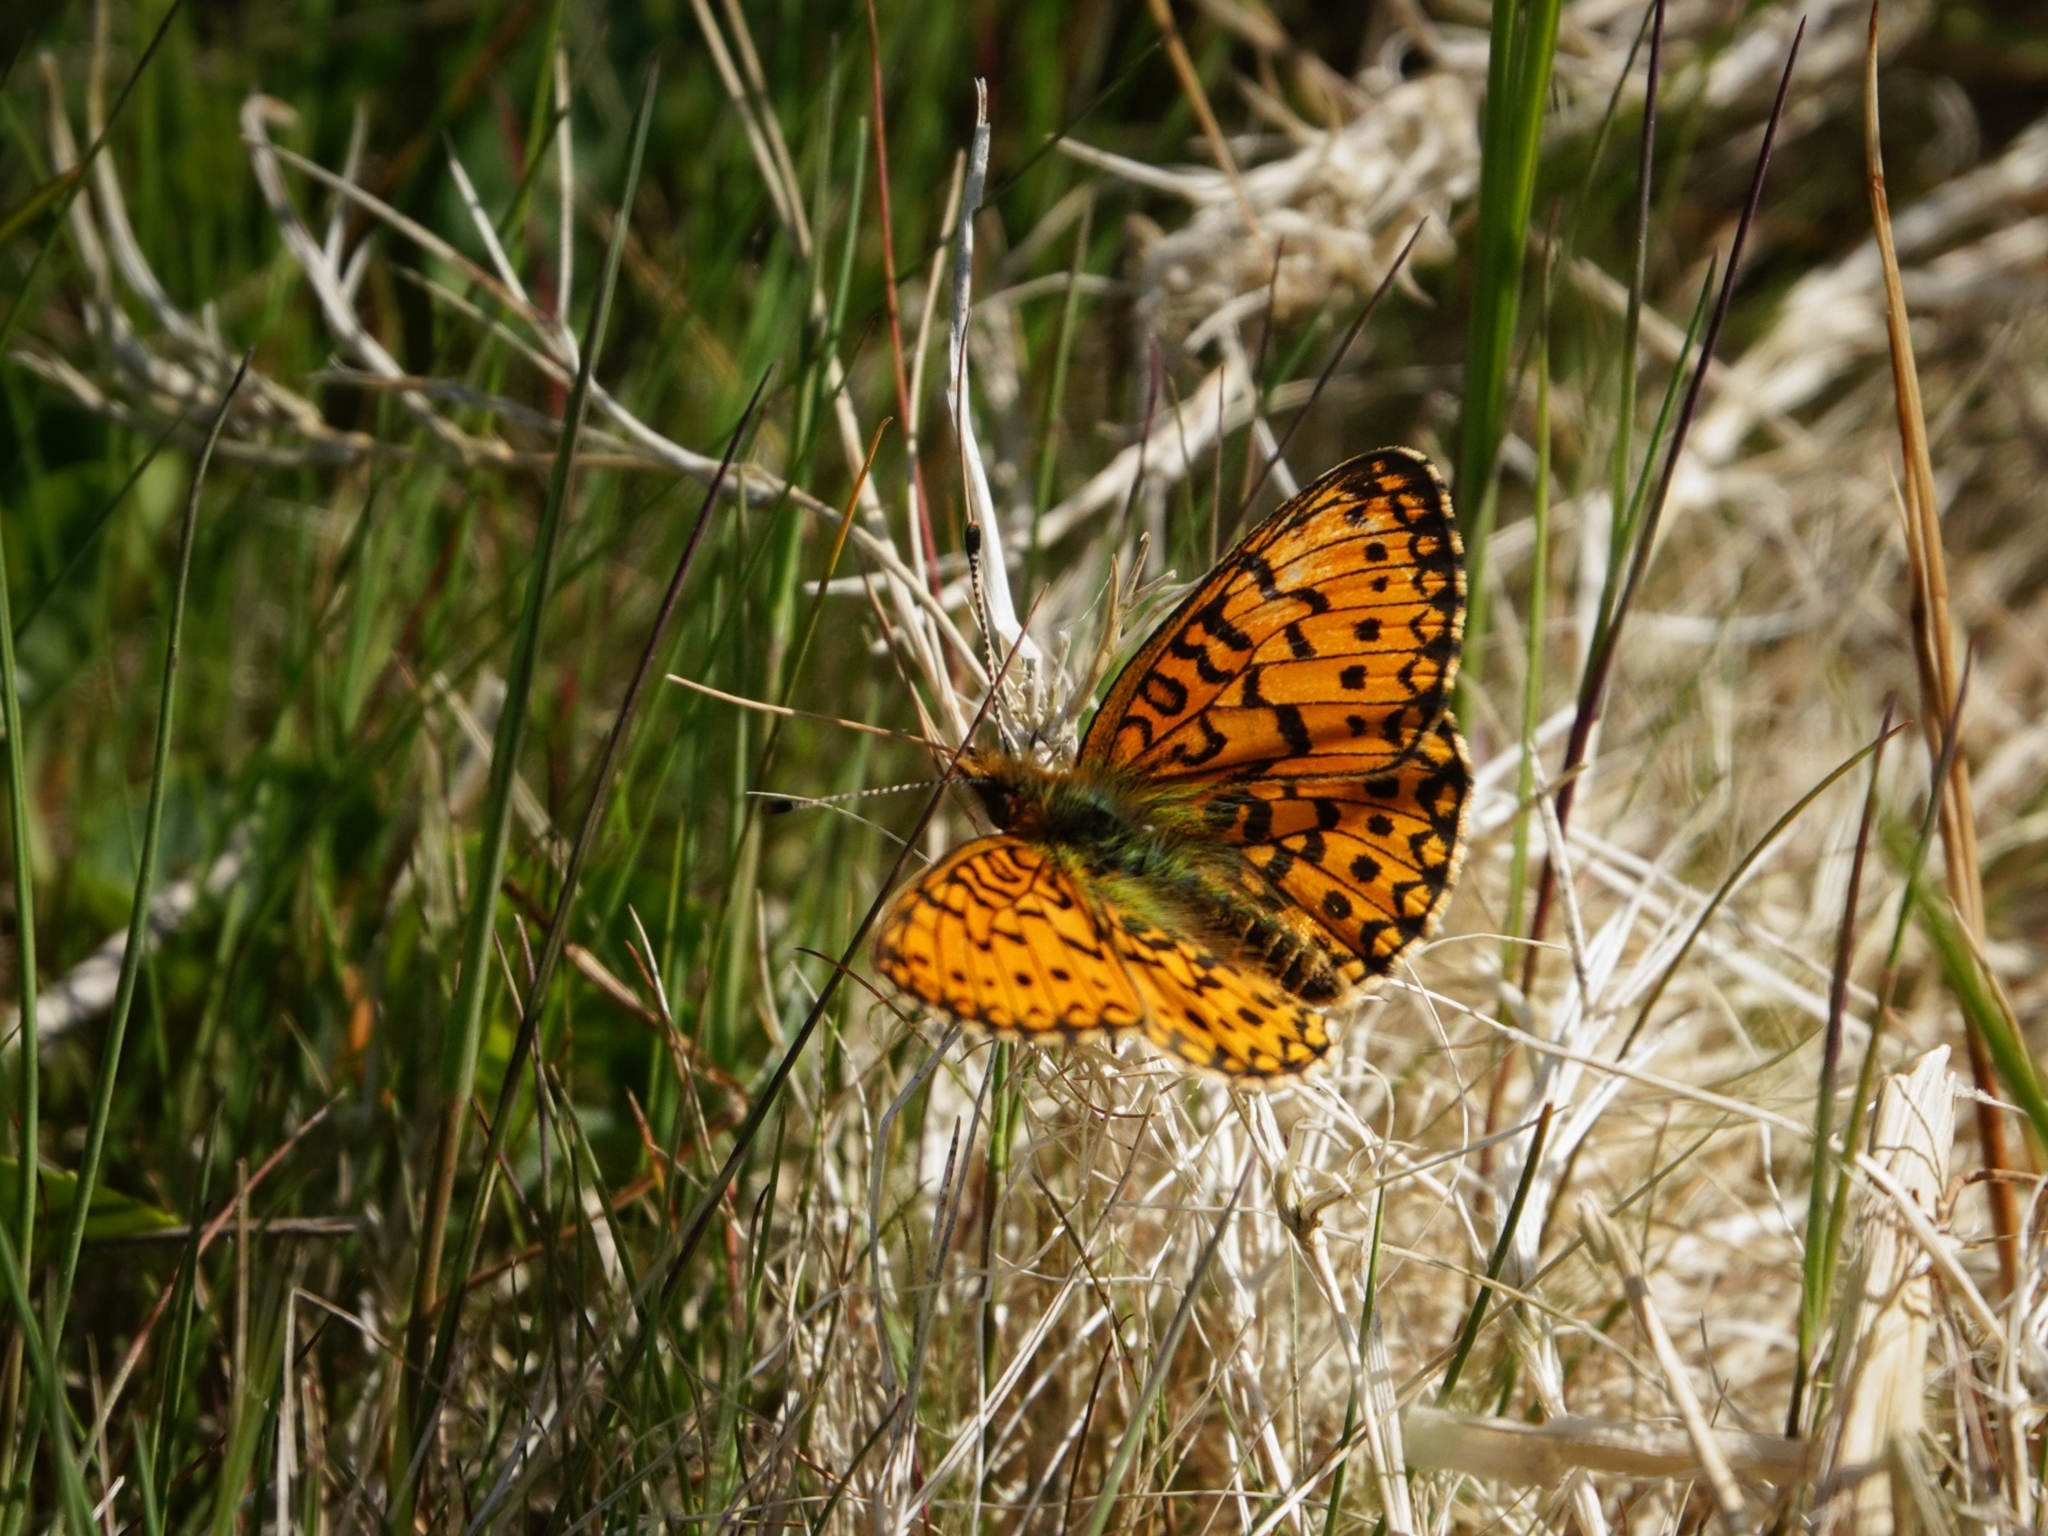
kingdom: Animalia
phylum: Arthropoda
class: Insecta
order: Lepidoptera
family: Nymphalidae
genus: Boloria
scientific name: Boloria selene
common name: Small pearl-bordered fritillary
